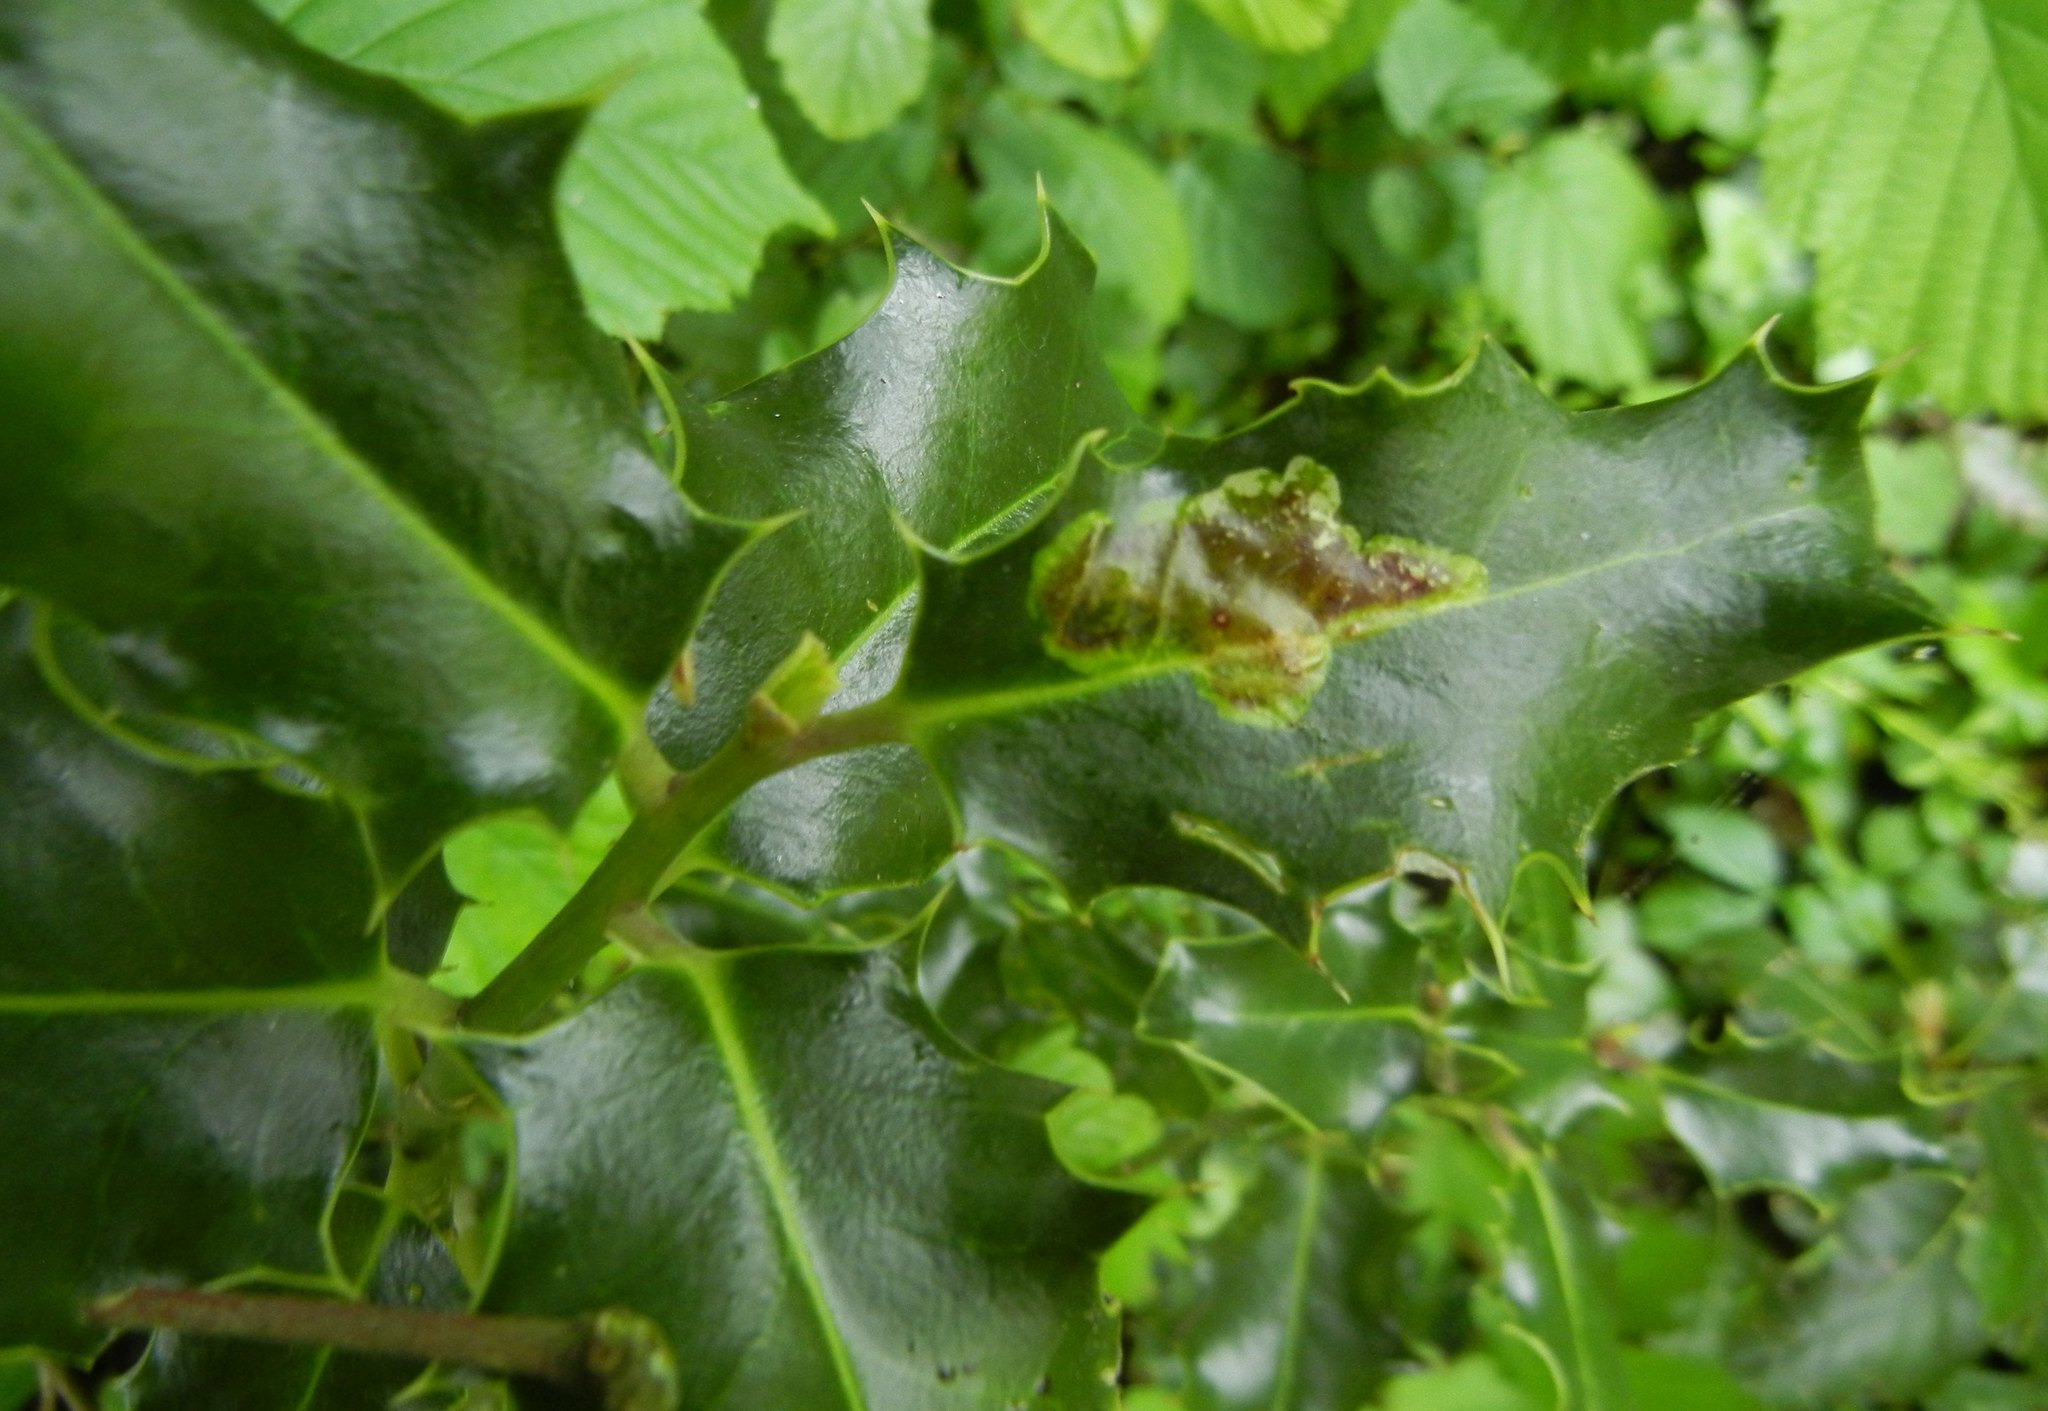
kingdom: Plantae
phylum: Tracheophyta
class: Magnoliopsida
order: Aquifoliales
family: Aquifoliaceae
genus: Ilex
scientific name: Ilex aquifolium
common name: English holly
